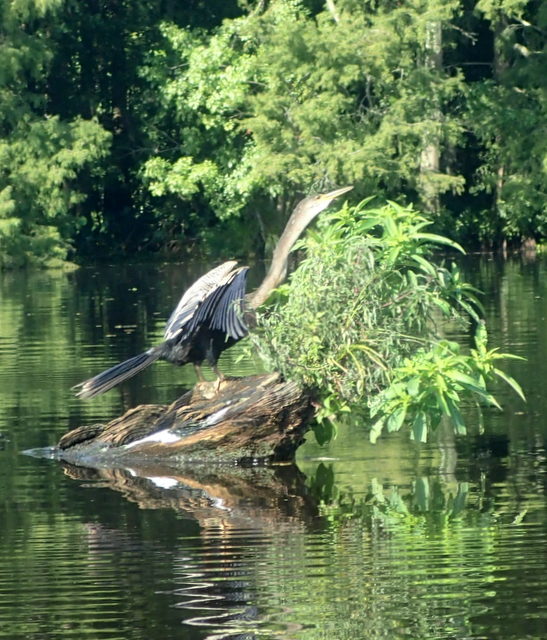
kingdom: Animalia
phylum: Chordata
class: Aves
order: Suliformes
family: Anhingidae
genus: Anhinga
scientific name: Anhinga anhinga
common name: Anhinga
